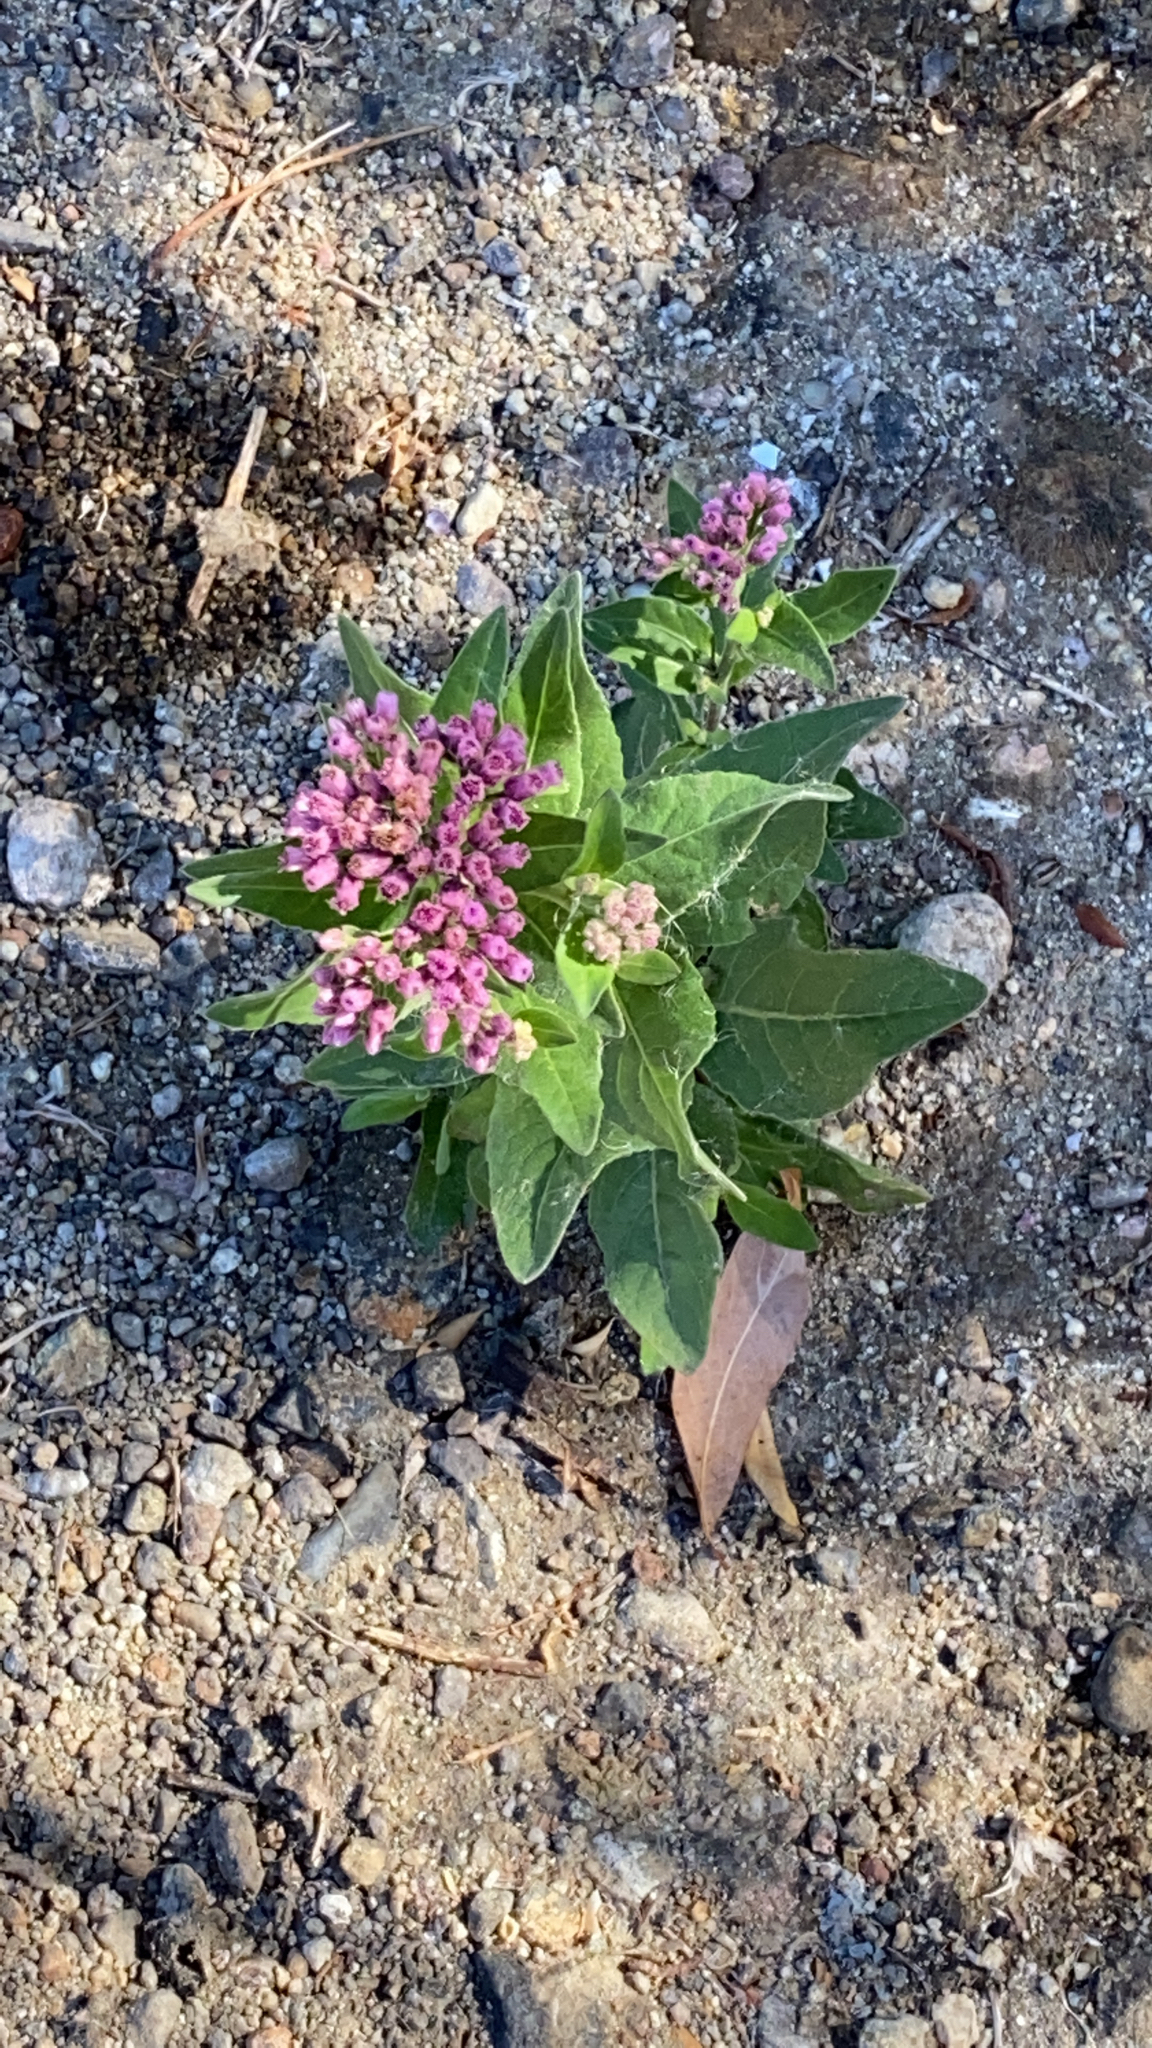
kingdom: Plantae
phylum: Tracheophyta
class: Magnoliopsida
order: Asterales
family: Asteraceae
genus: Pluchea
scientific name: Pluchea odorata
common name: Saltmarsh fleabane
